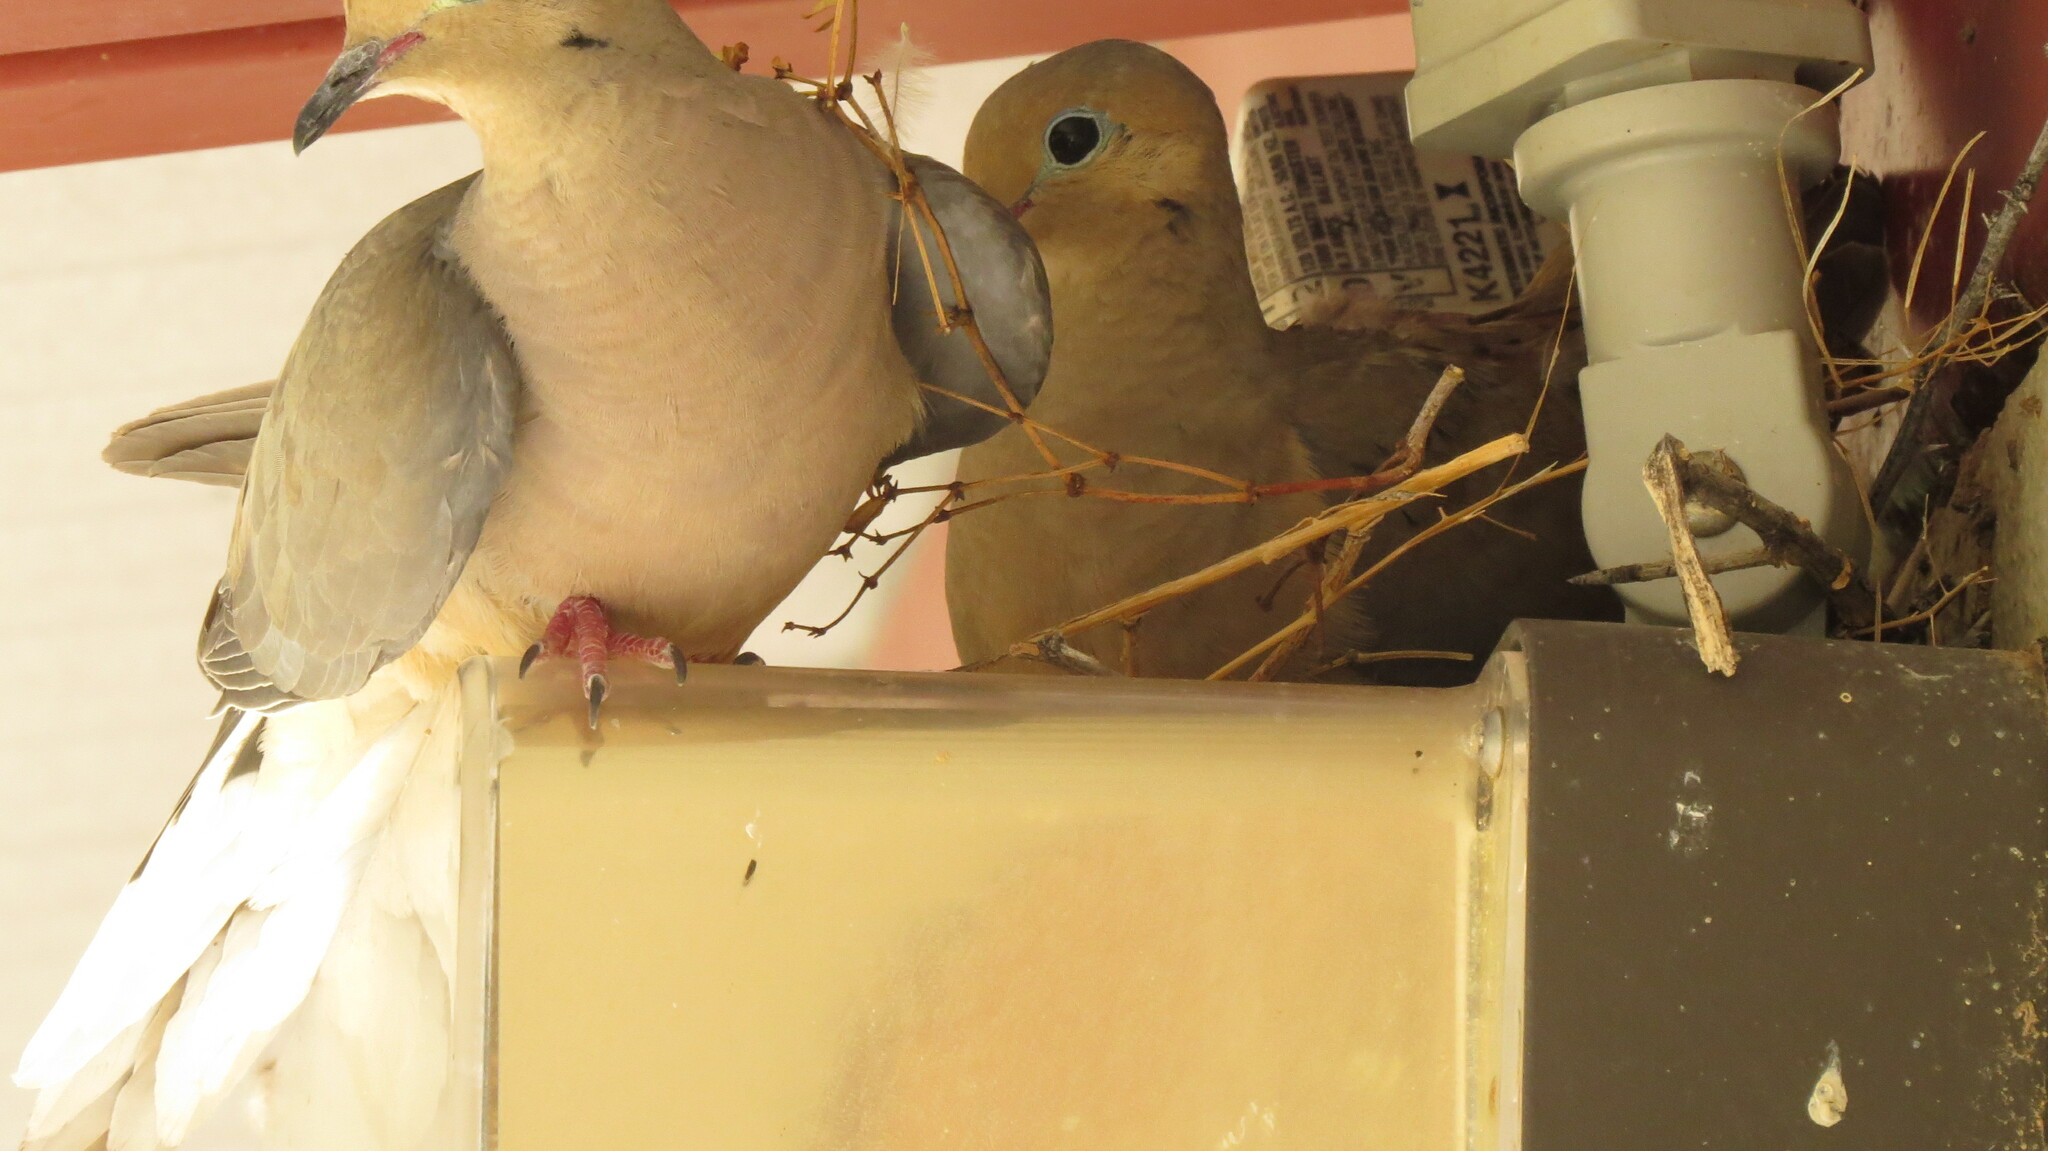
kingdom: Animalia
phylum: Chordata
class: Aves
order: Columbiformes
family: Columbidae
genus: Zenaida
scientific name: Zenaida macroura
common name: Mourning dove
